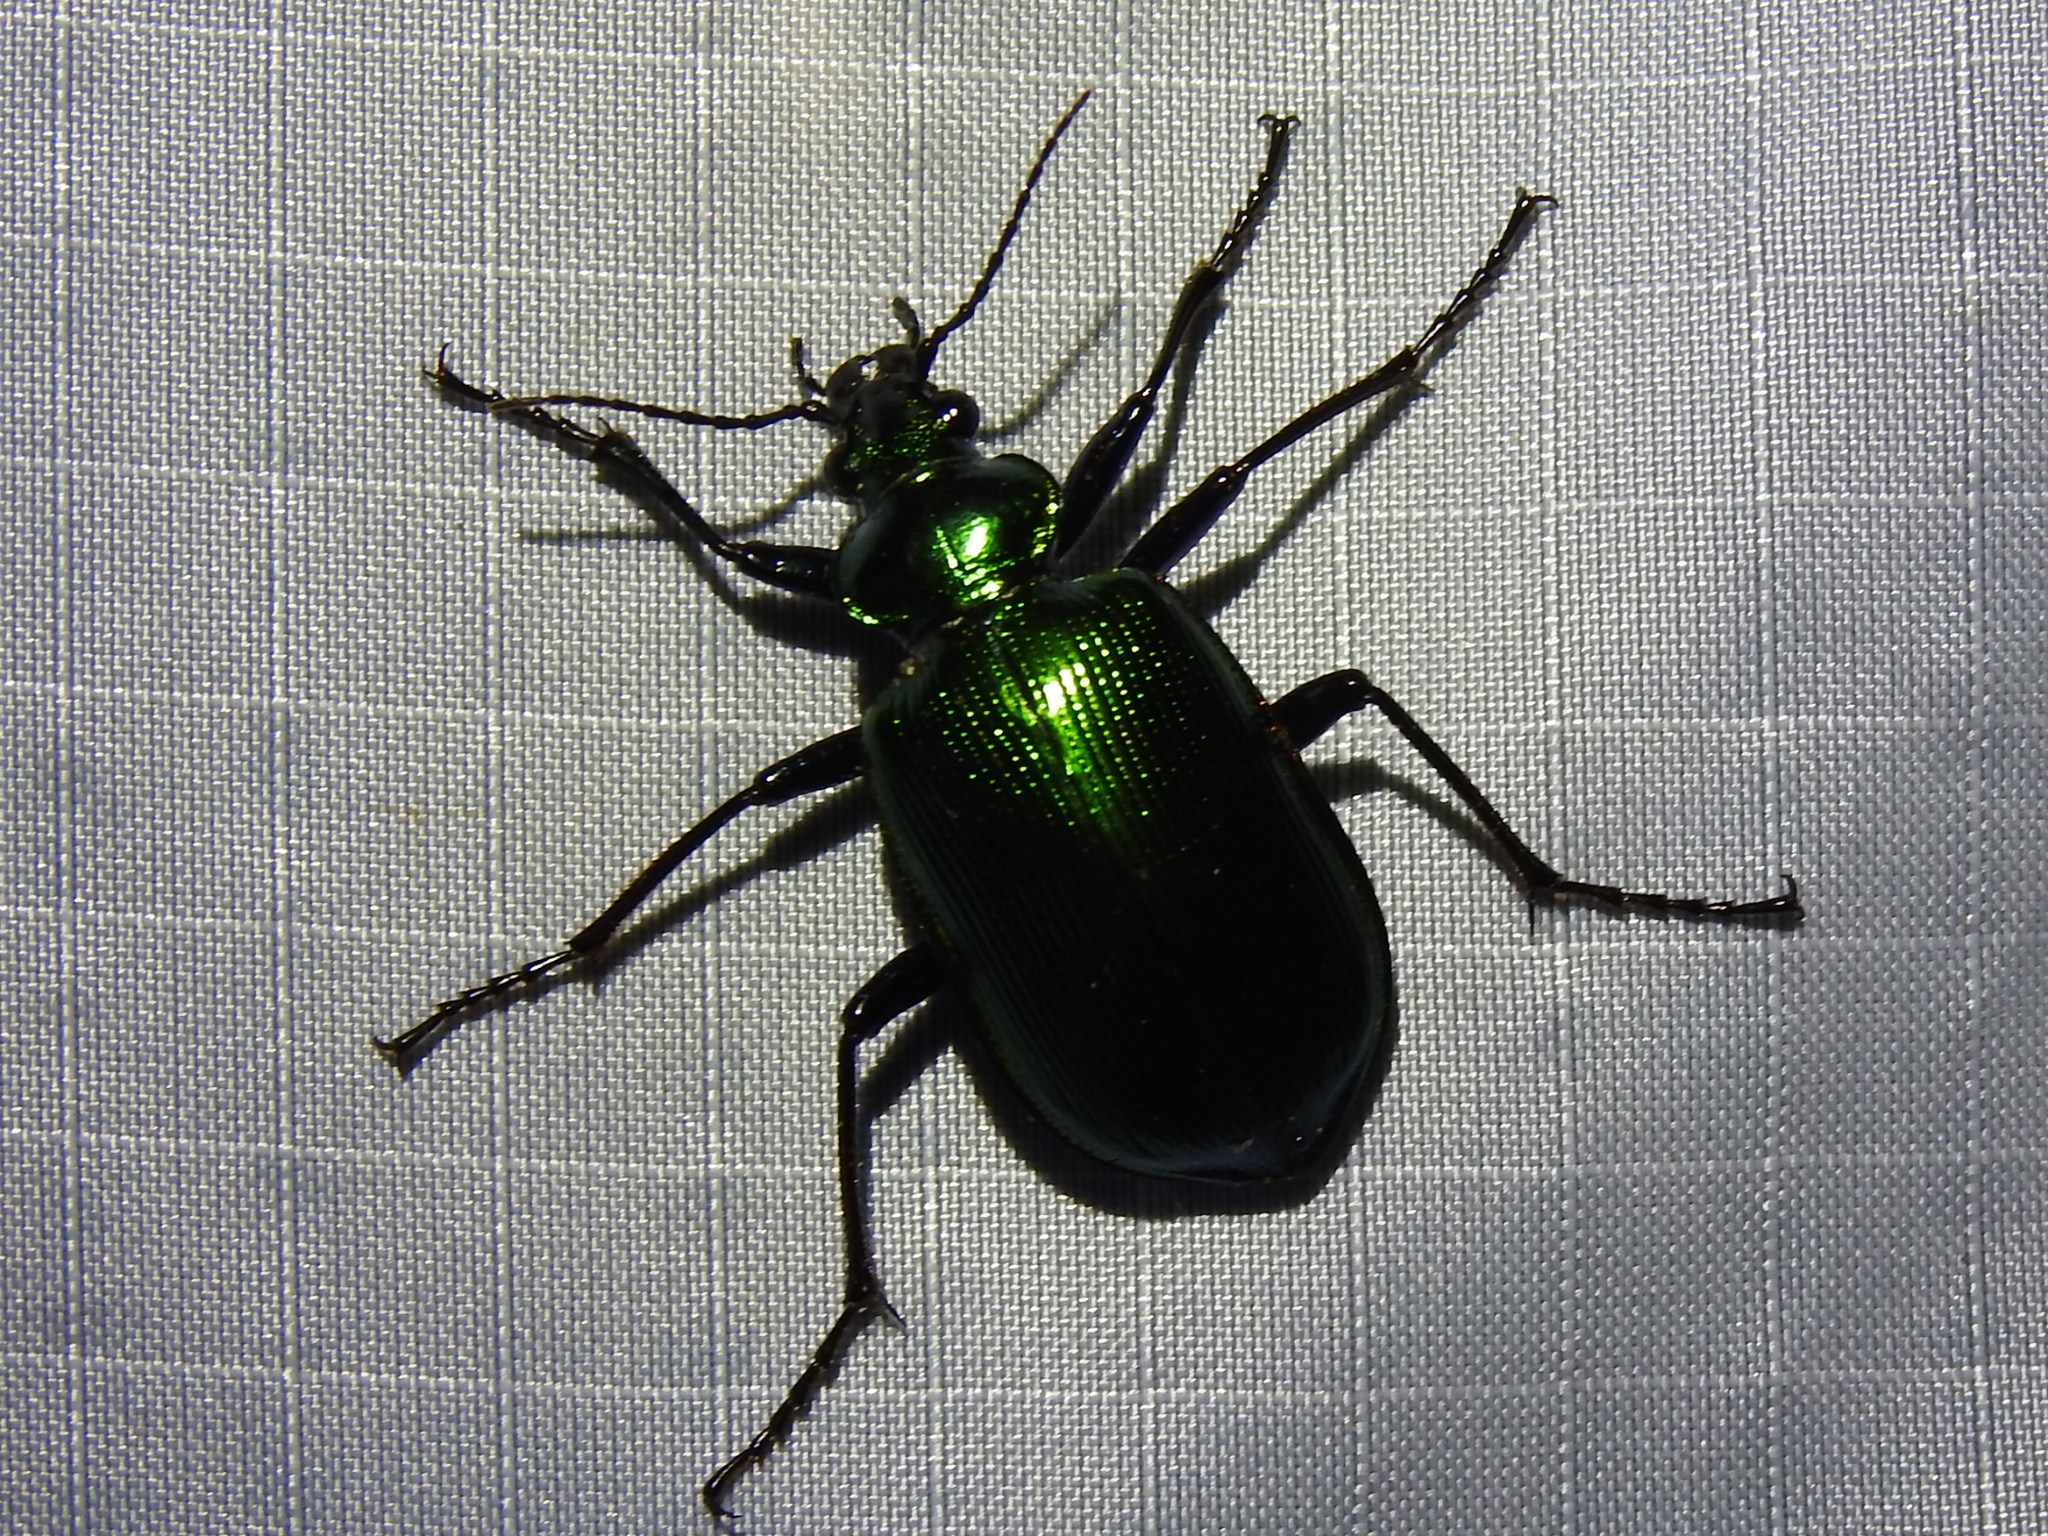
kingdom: Animalia
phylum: Arthropoda
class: Insecta
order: Coleoptera
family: Carabidae
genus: Calosoma
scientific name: Calosoma aurocinctum
